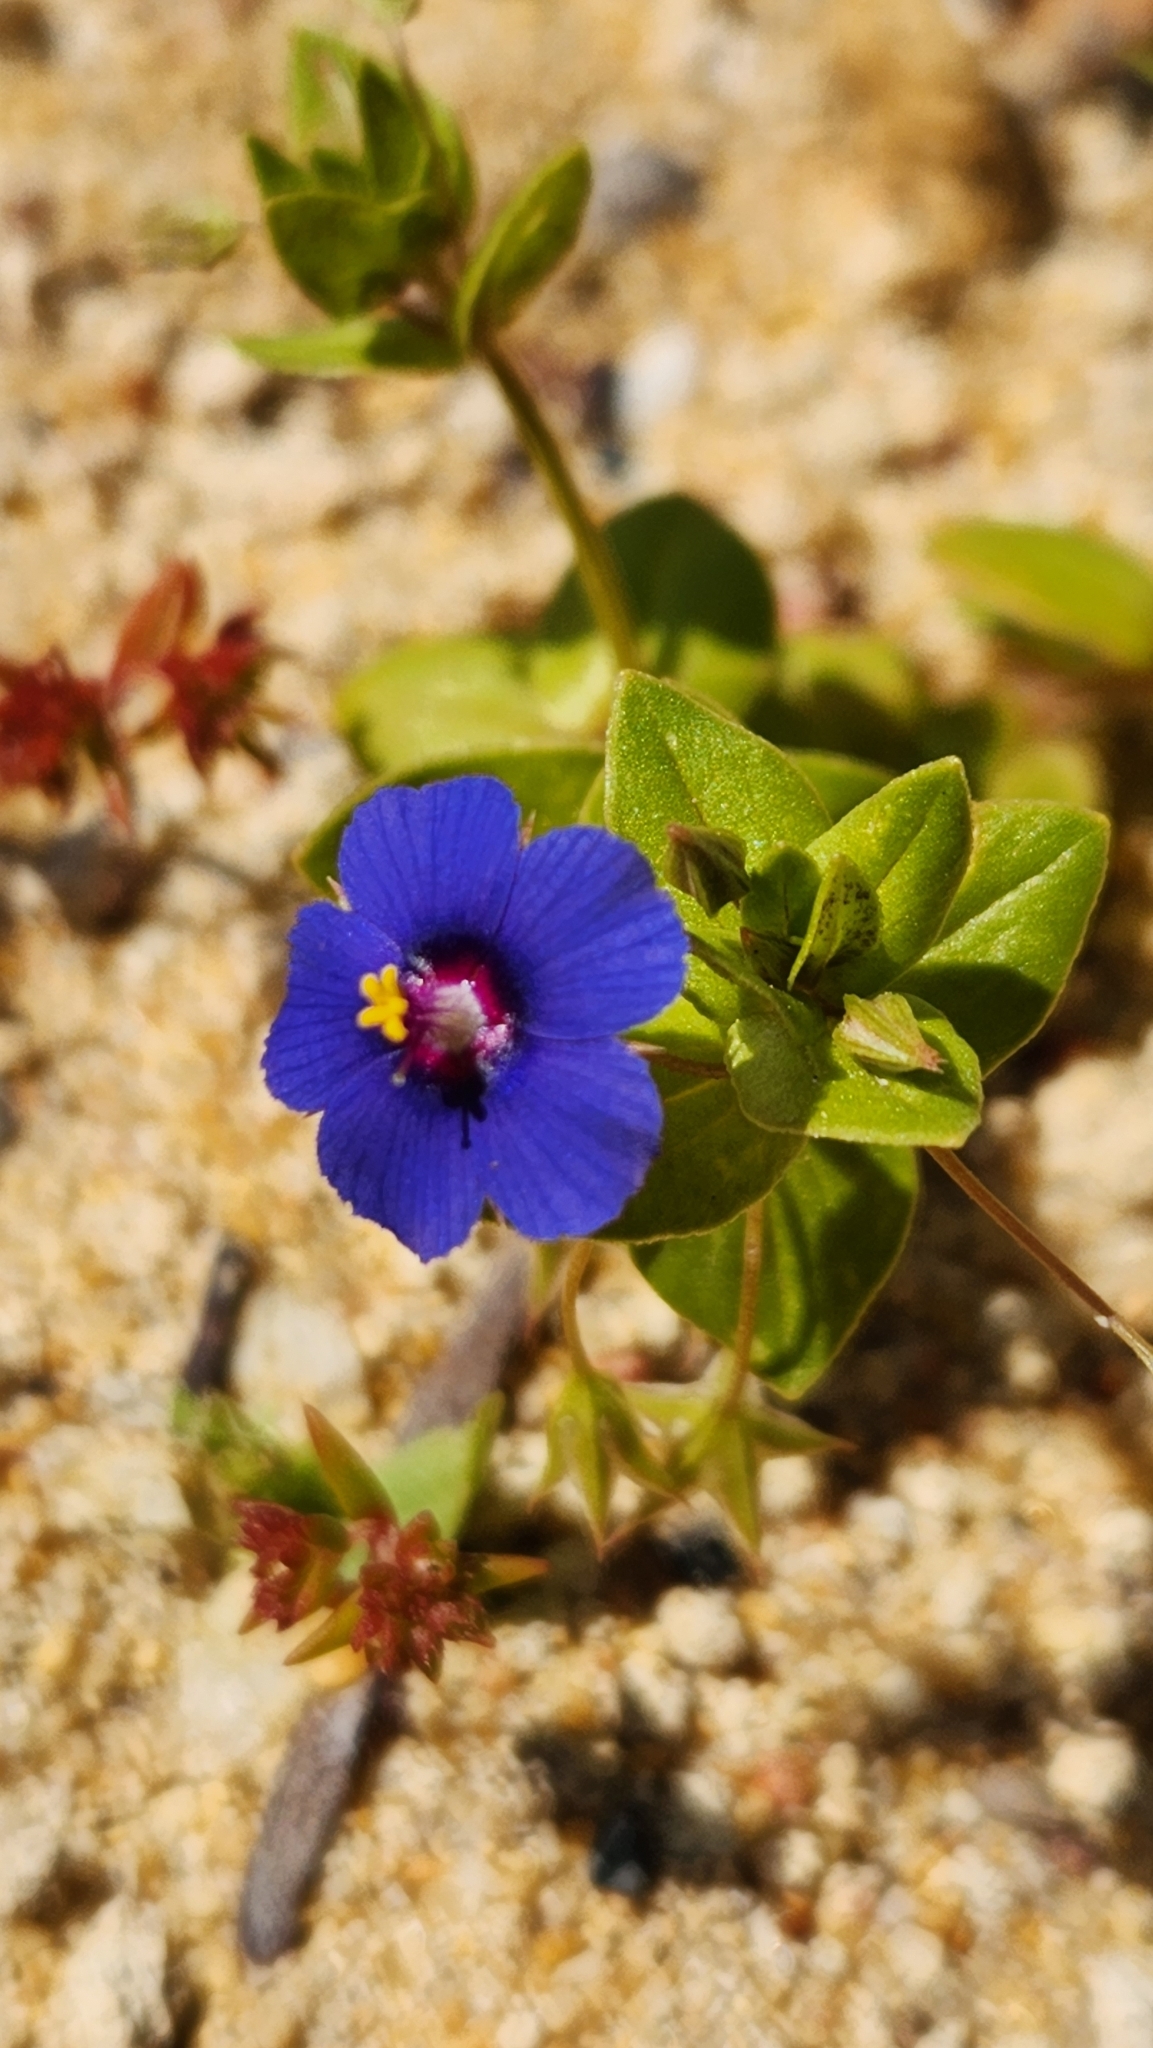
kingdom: Plantae
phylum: Tracheophyta
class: Magnoliopsida
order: Ericales
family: Primulaceae
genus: Lysimachia
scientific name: Lysimachia loeflingii
